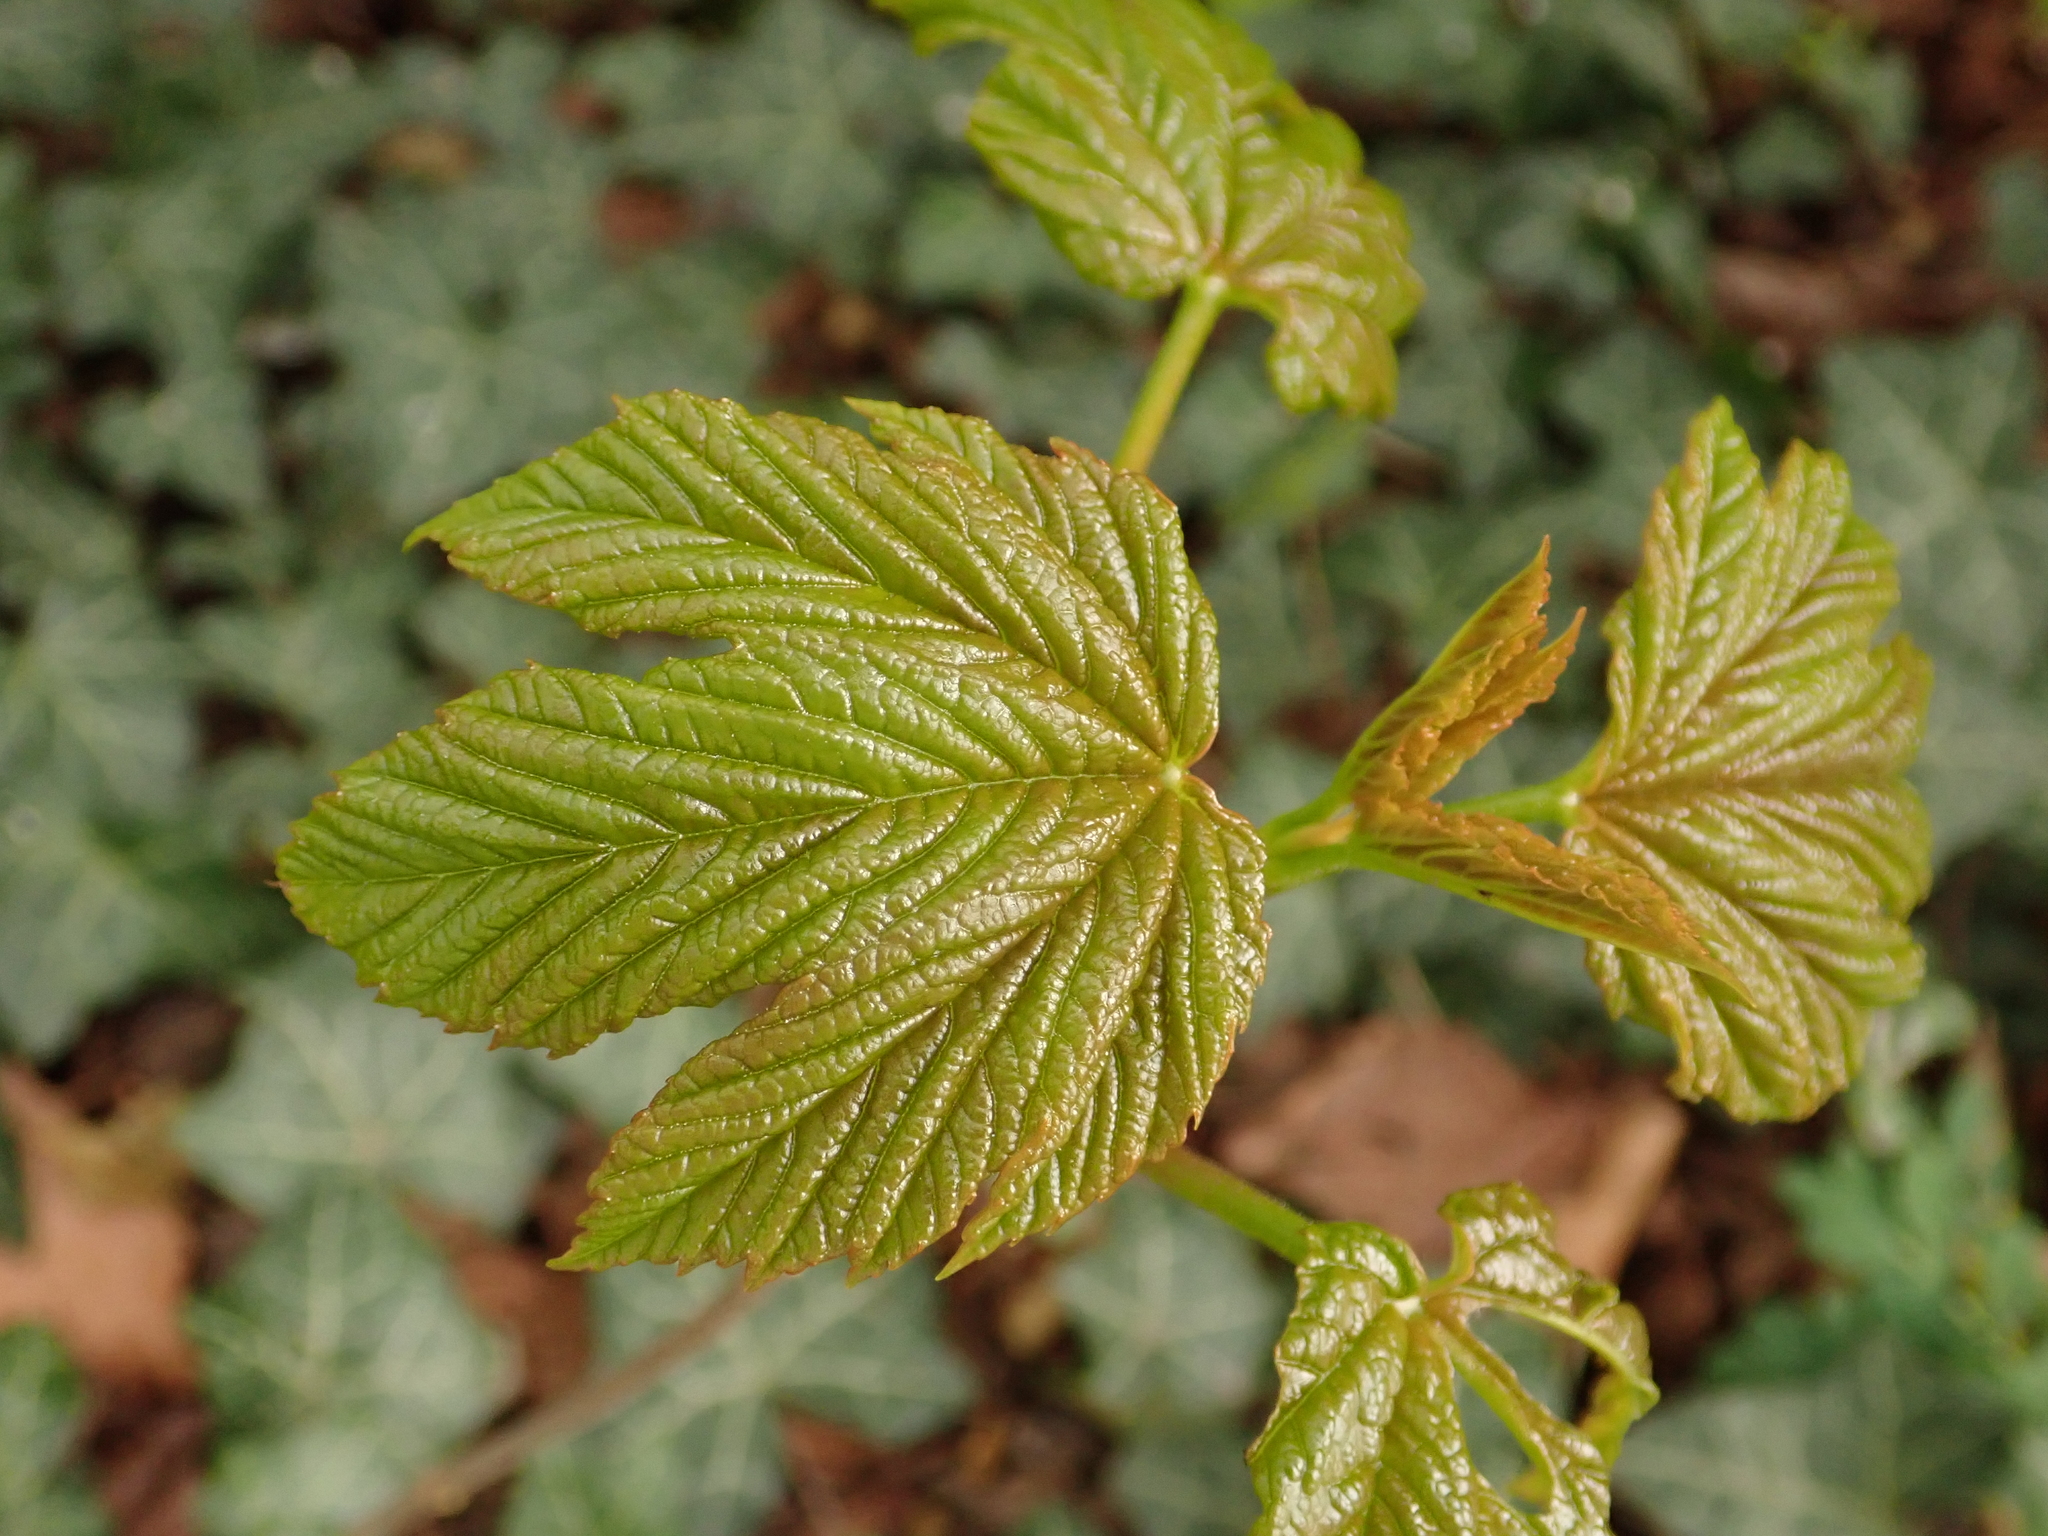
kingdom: Plantae
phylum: Tracheophyta
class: Magnoliopsida
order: Sapindales
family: Sapindaceae
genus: Acer
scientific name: Acer pseudoplatanus
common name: Sycamore
